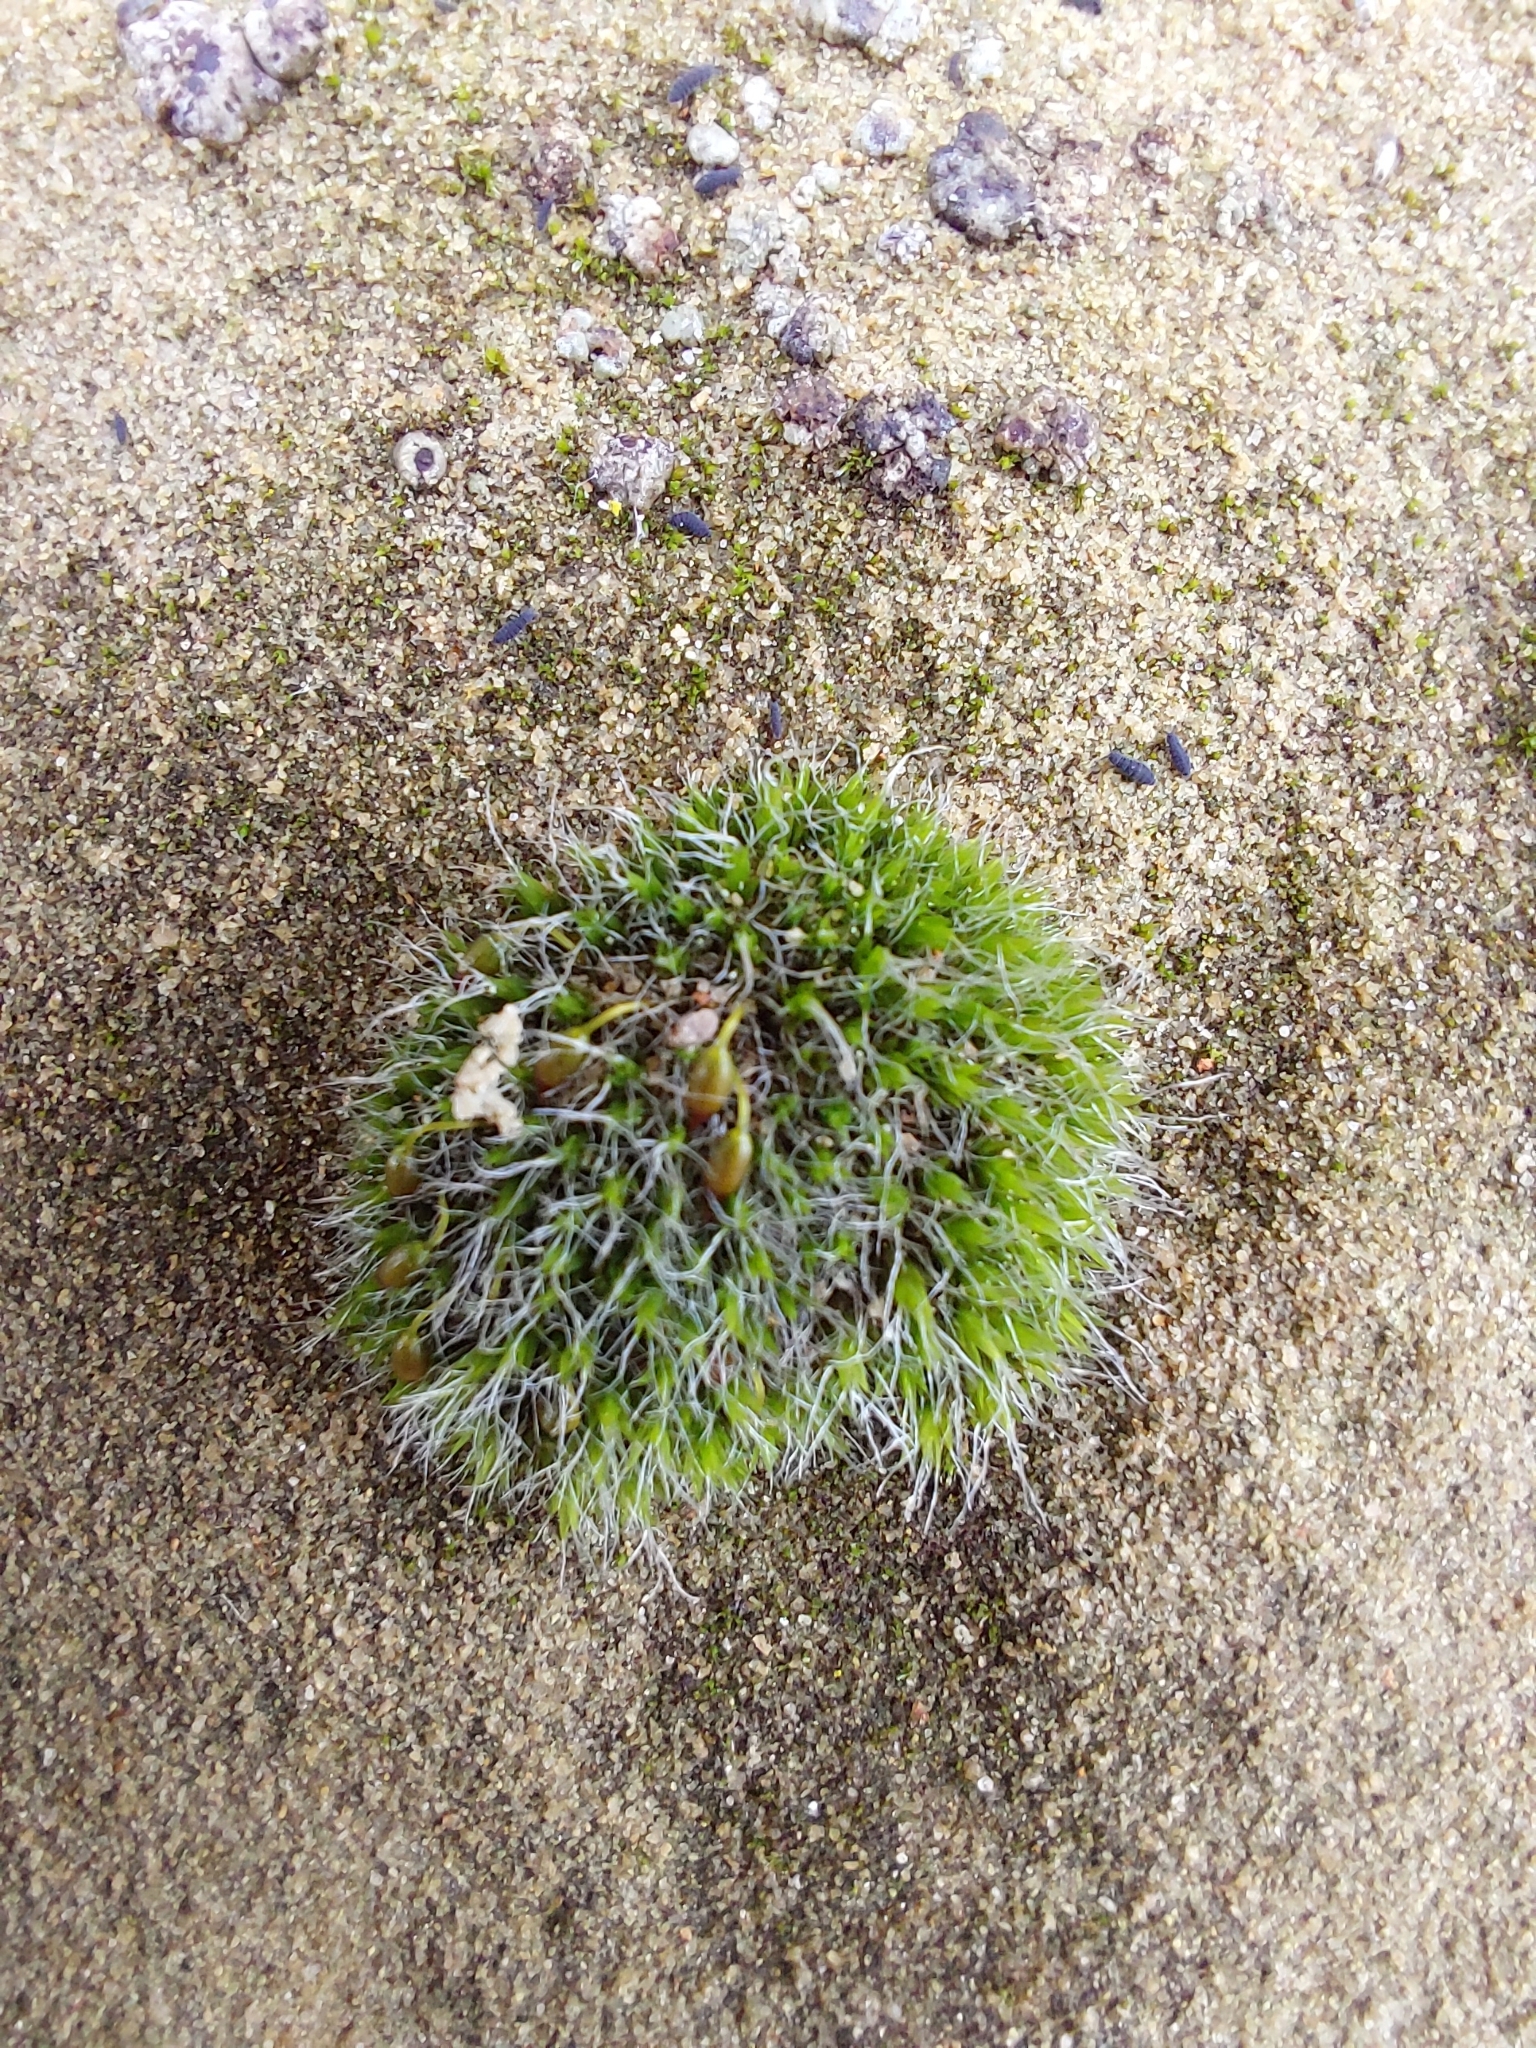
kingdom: Plantae
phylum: Bryophyta
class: Bryopsida
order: Grimmiales
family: Grimmiaceae
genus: Grimmia
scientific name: Grimmia pulvinata
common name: Grey-cushioned grimmia
